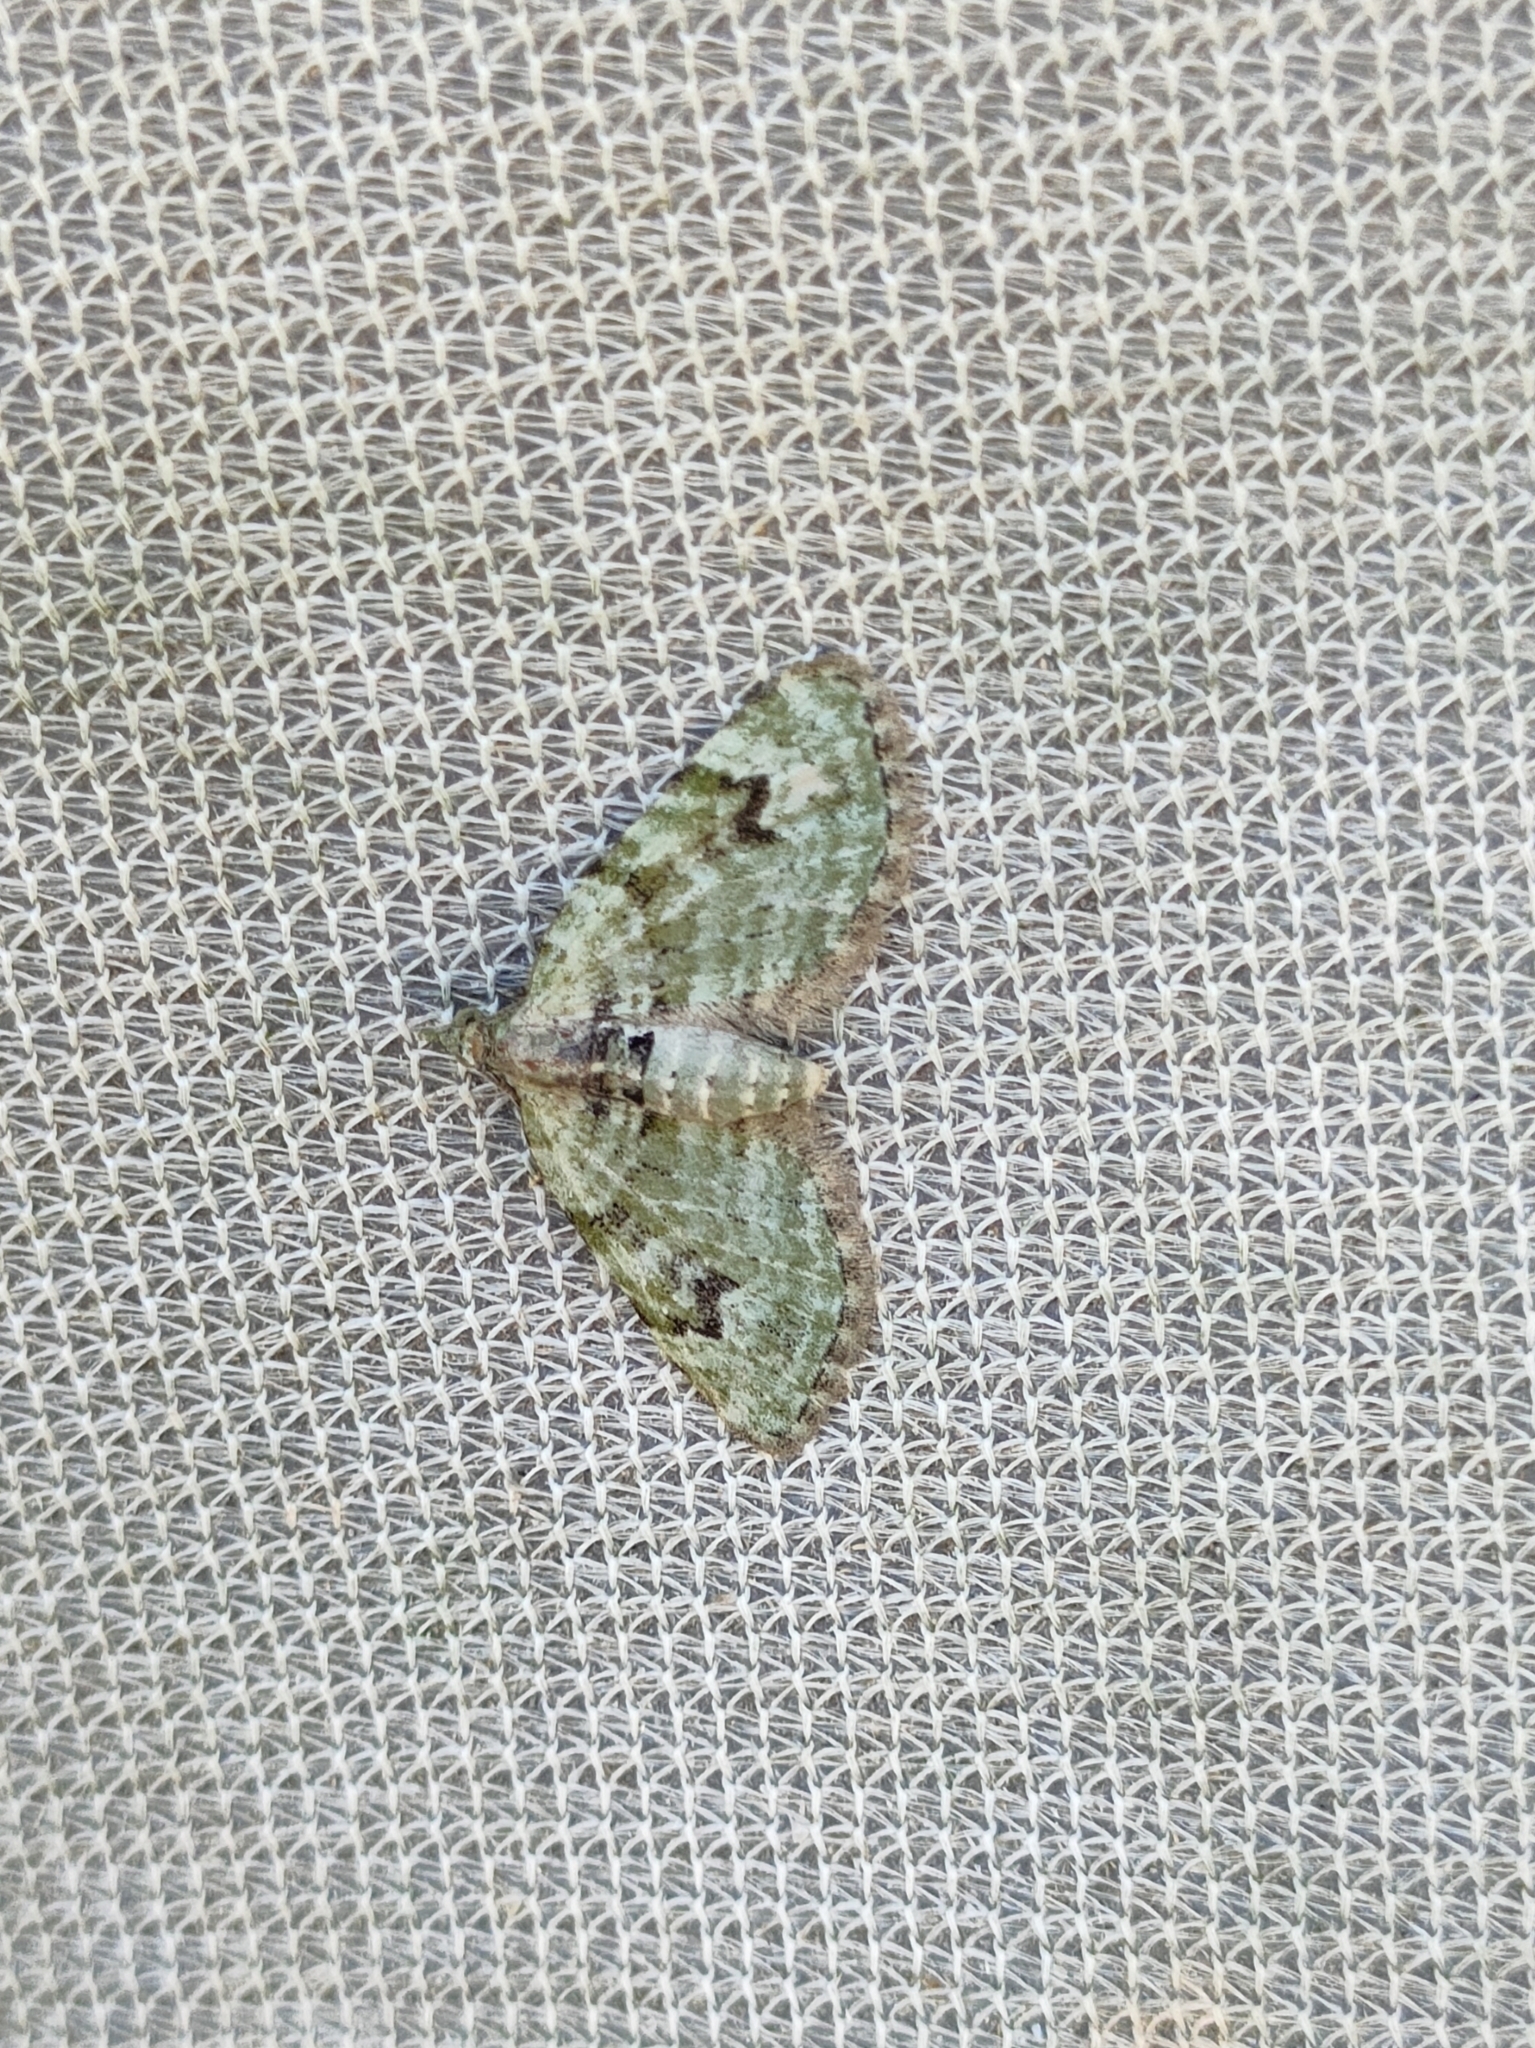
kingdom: Animalia
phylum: Arthropoda
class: Insecta
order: Lepidoptera
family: Geometridae
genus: Chloroclystis
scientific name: Chloroclystis v-ata
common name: V-pug
